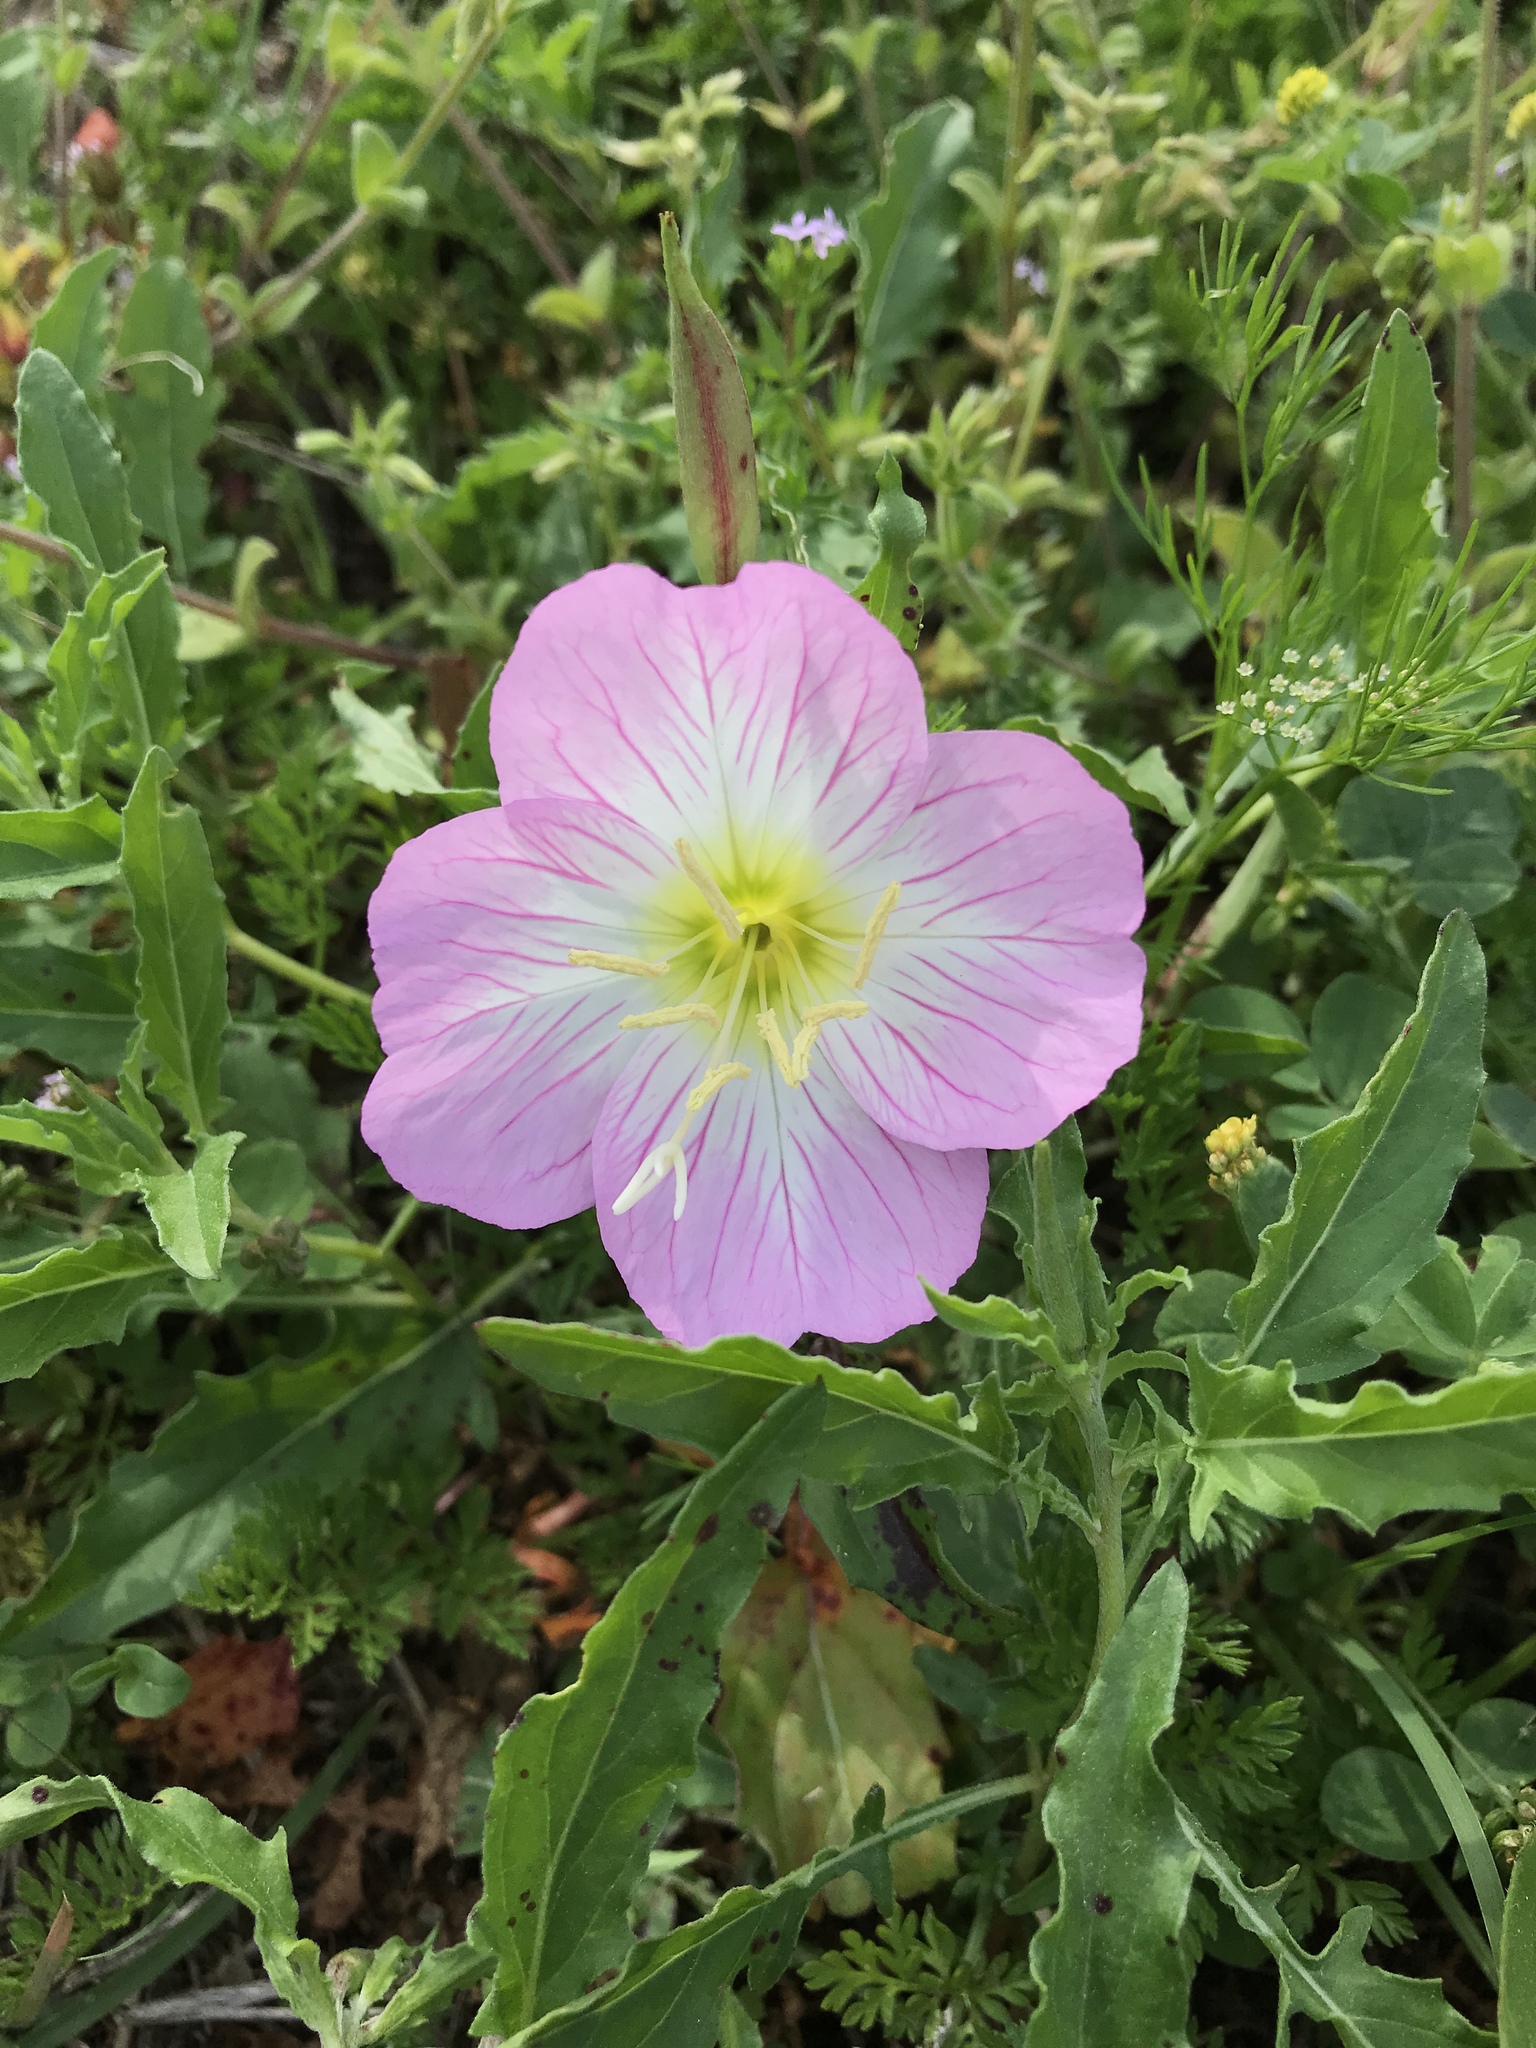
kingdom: Plantae
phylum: Tracheophyta
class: Magnoliopsida
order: Myrtales
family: Onagraceae
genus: Oenothera
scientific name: Oenothera speciosa
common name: White evening-primrose
